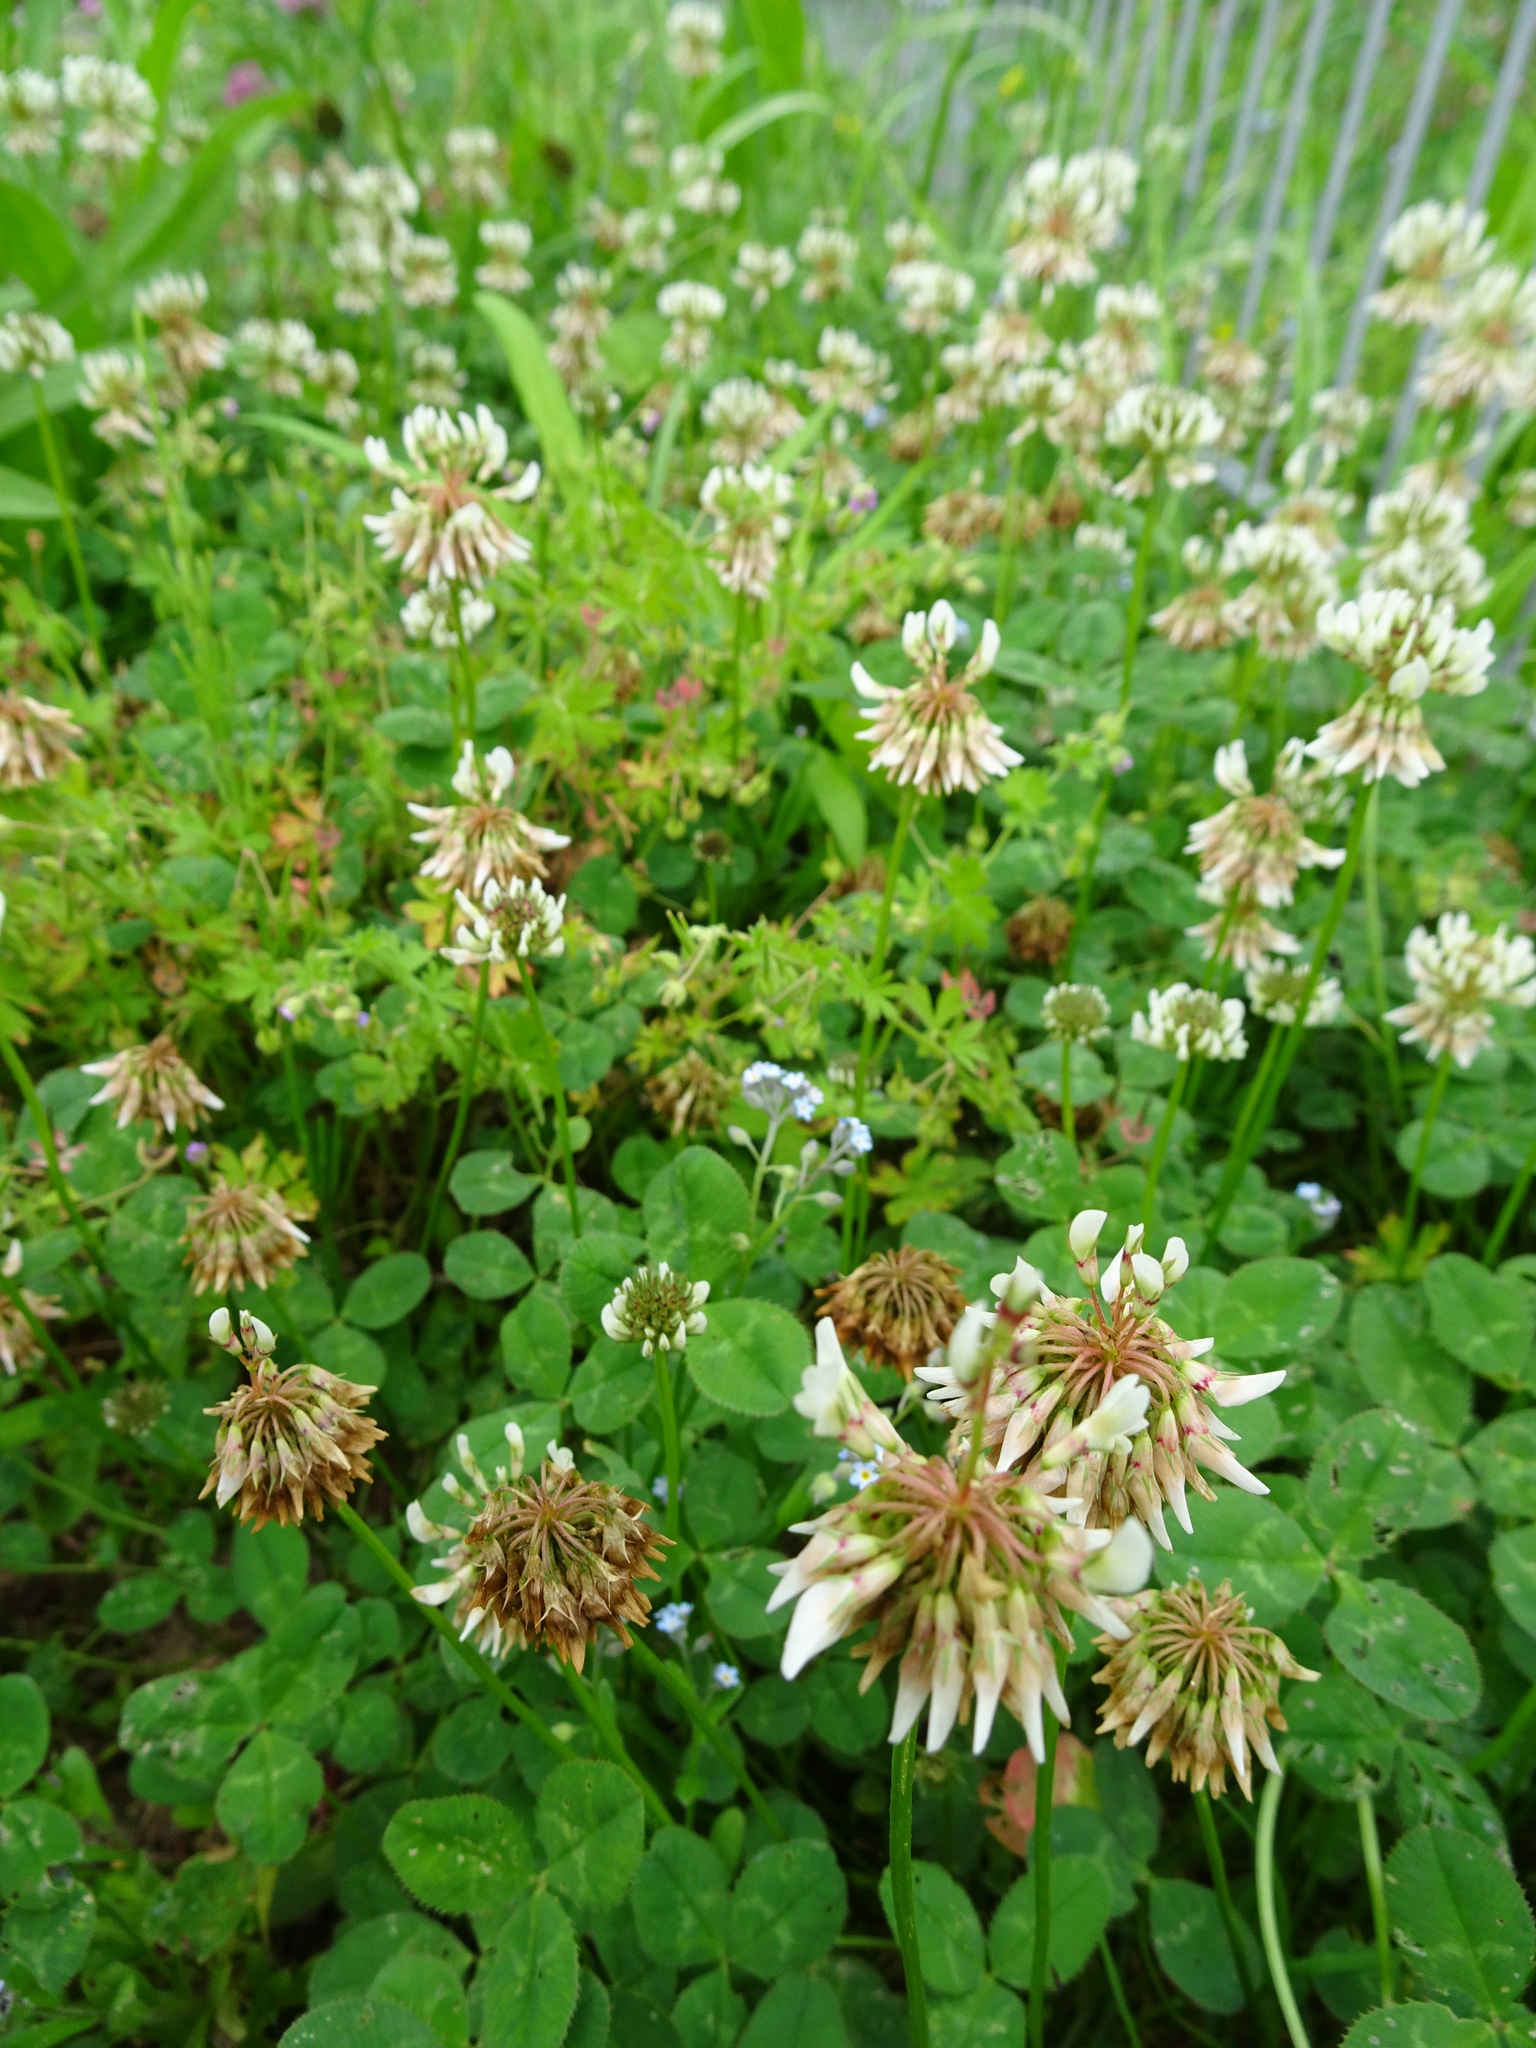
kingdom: Plantae
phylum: Tracheophyta
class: Magnoliopsida
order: Fabales
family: Fabaceae
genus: Trifolium
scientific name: Trifolium repens
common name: White clover
